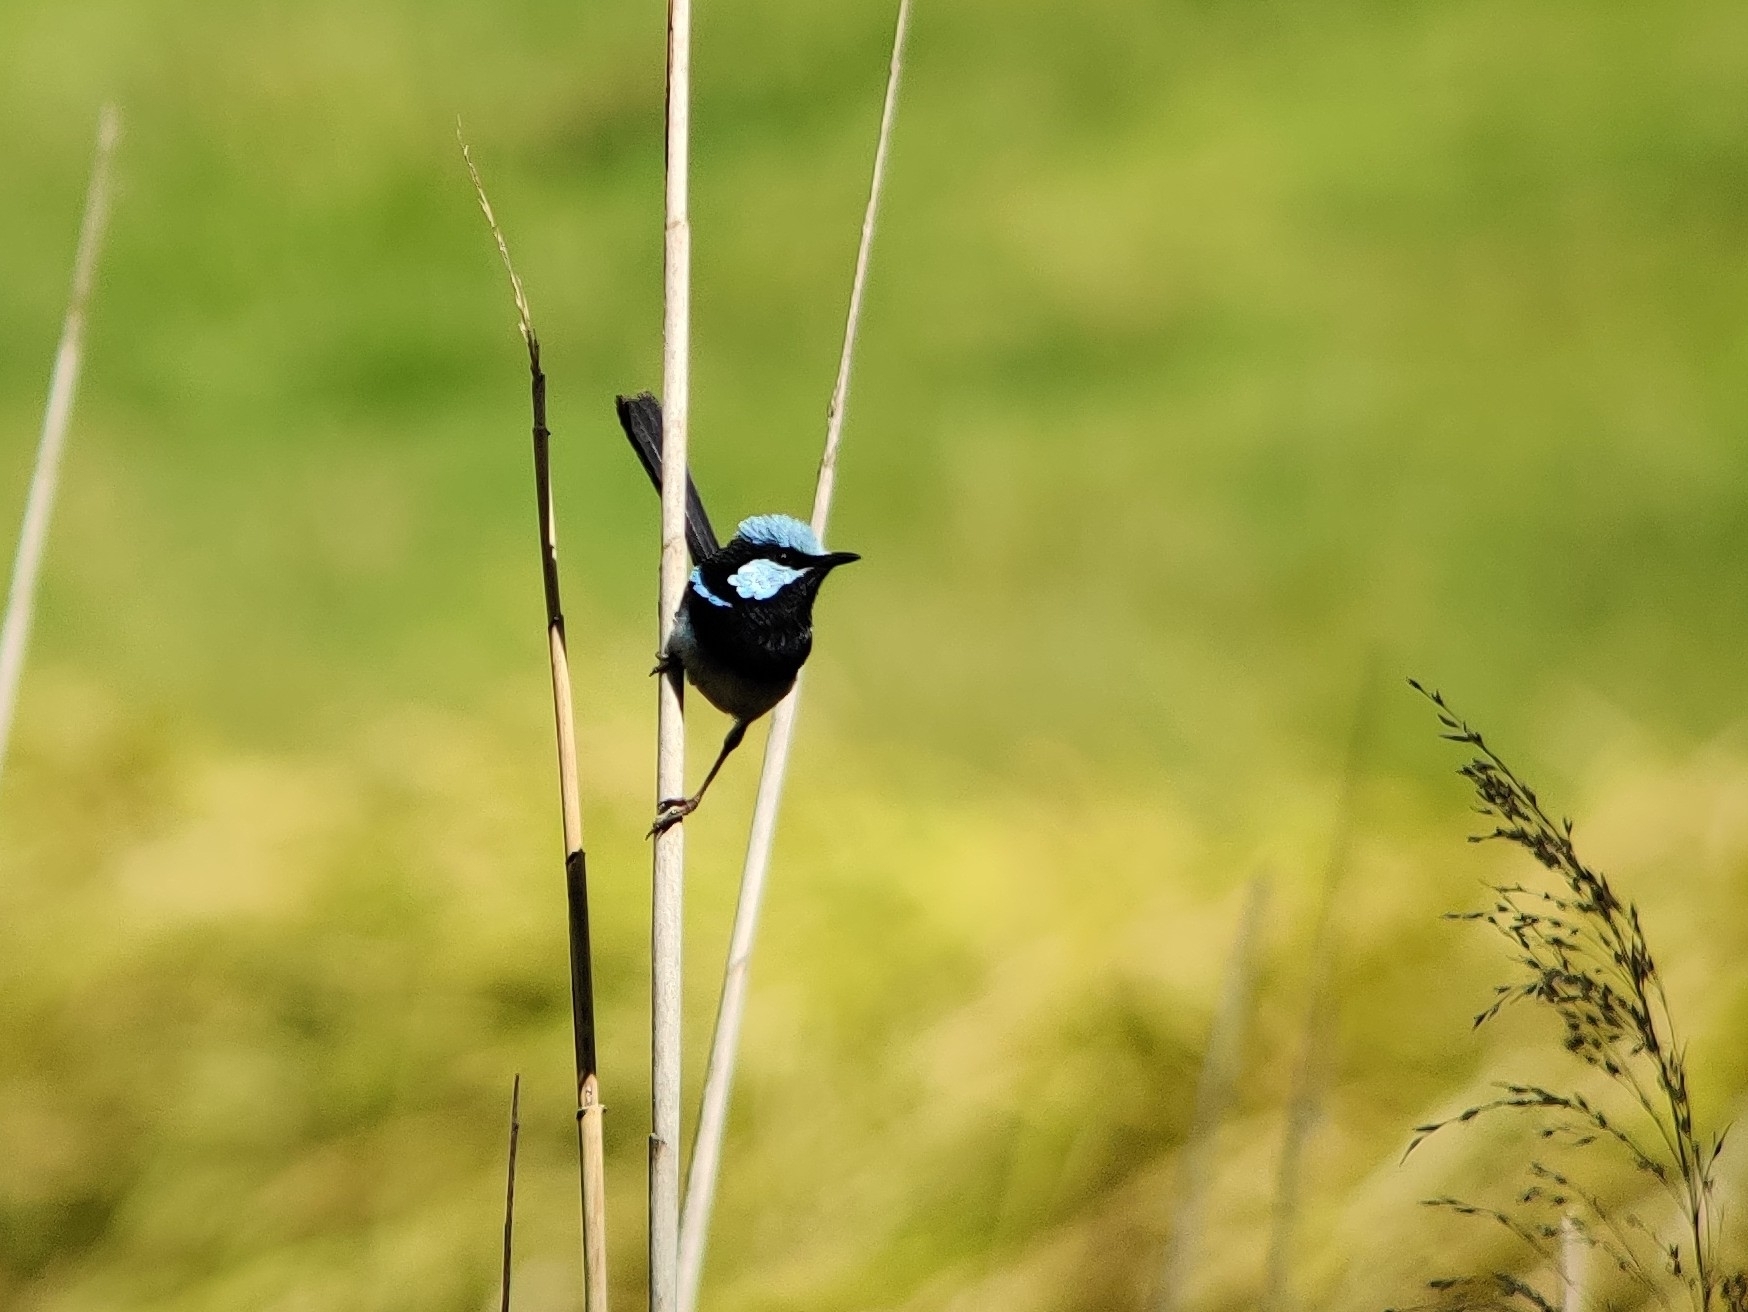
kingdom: Animalia
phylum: Chordata
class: Aves
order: Passeriformes
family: Maluridae
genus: Malurus
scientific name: Malurus cyaneus
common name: Superb fairywren
